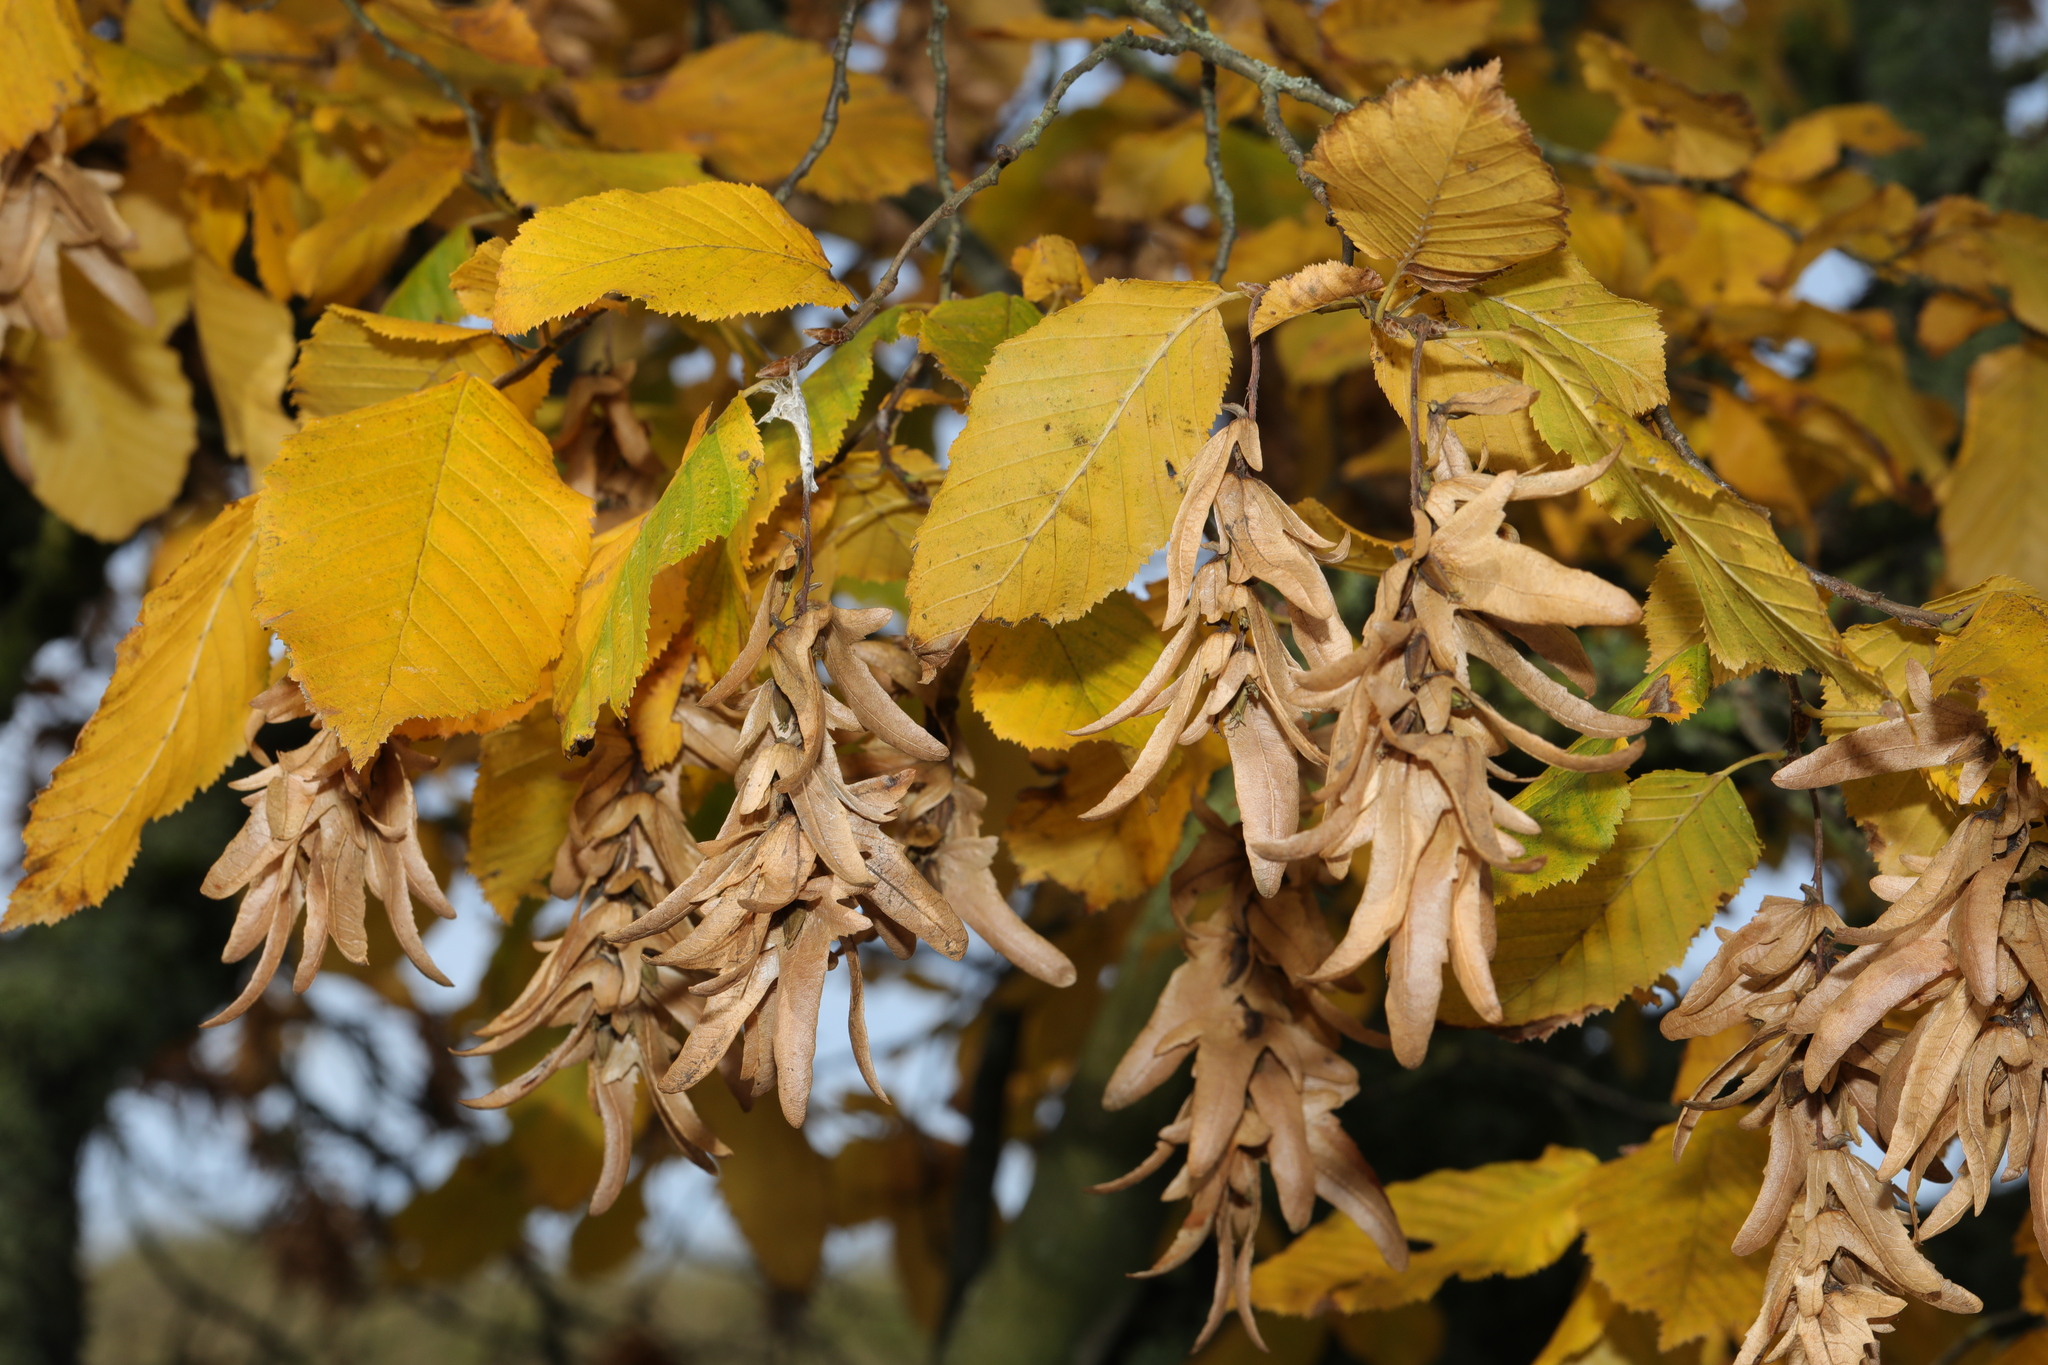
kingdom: Plantae
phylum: Tracheophyta
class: Magnoliopsida
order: Fagales
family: Betulaceae
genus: Carpinus
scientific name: Carpinus betulus
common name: Hornbeam
